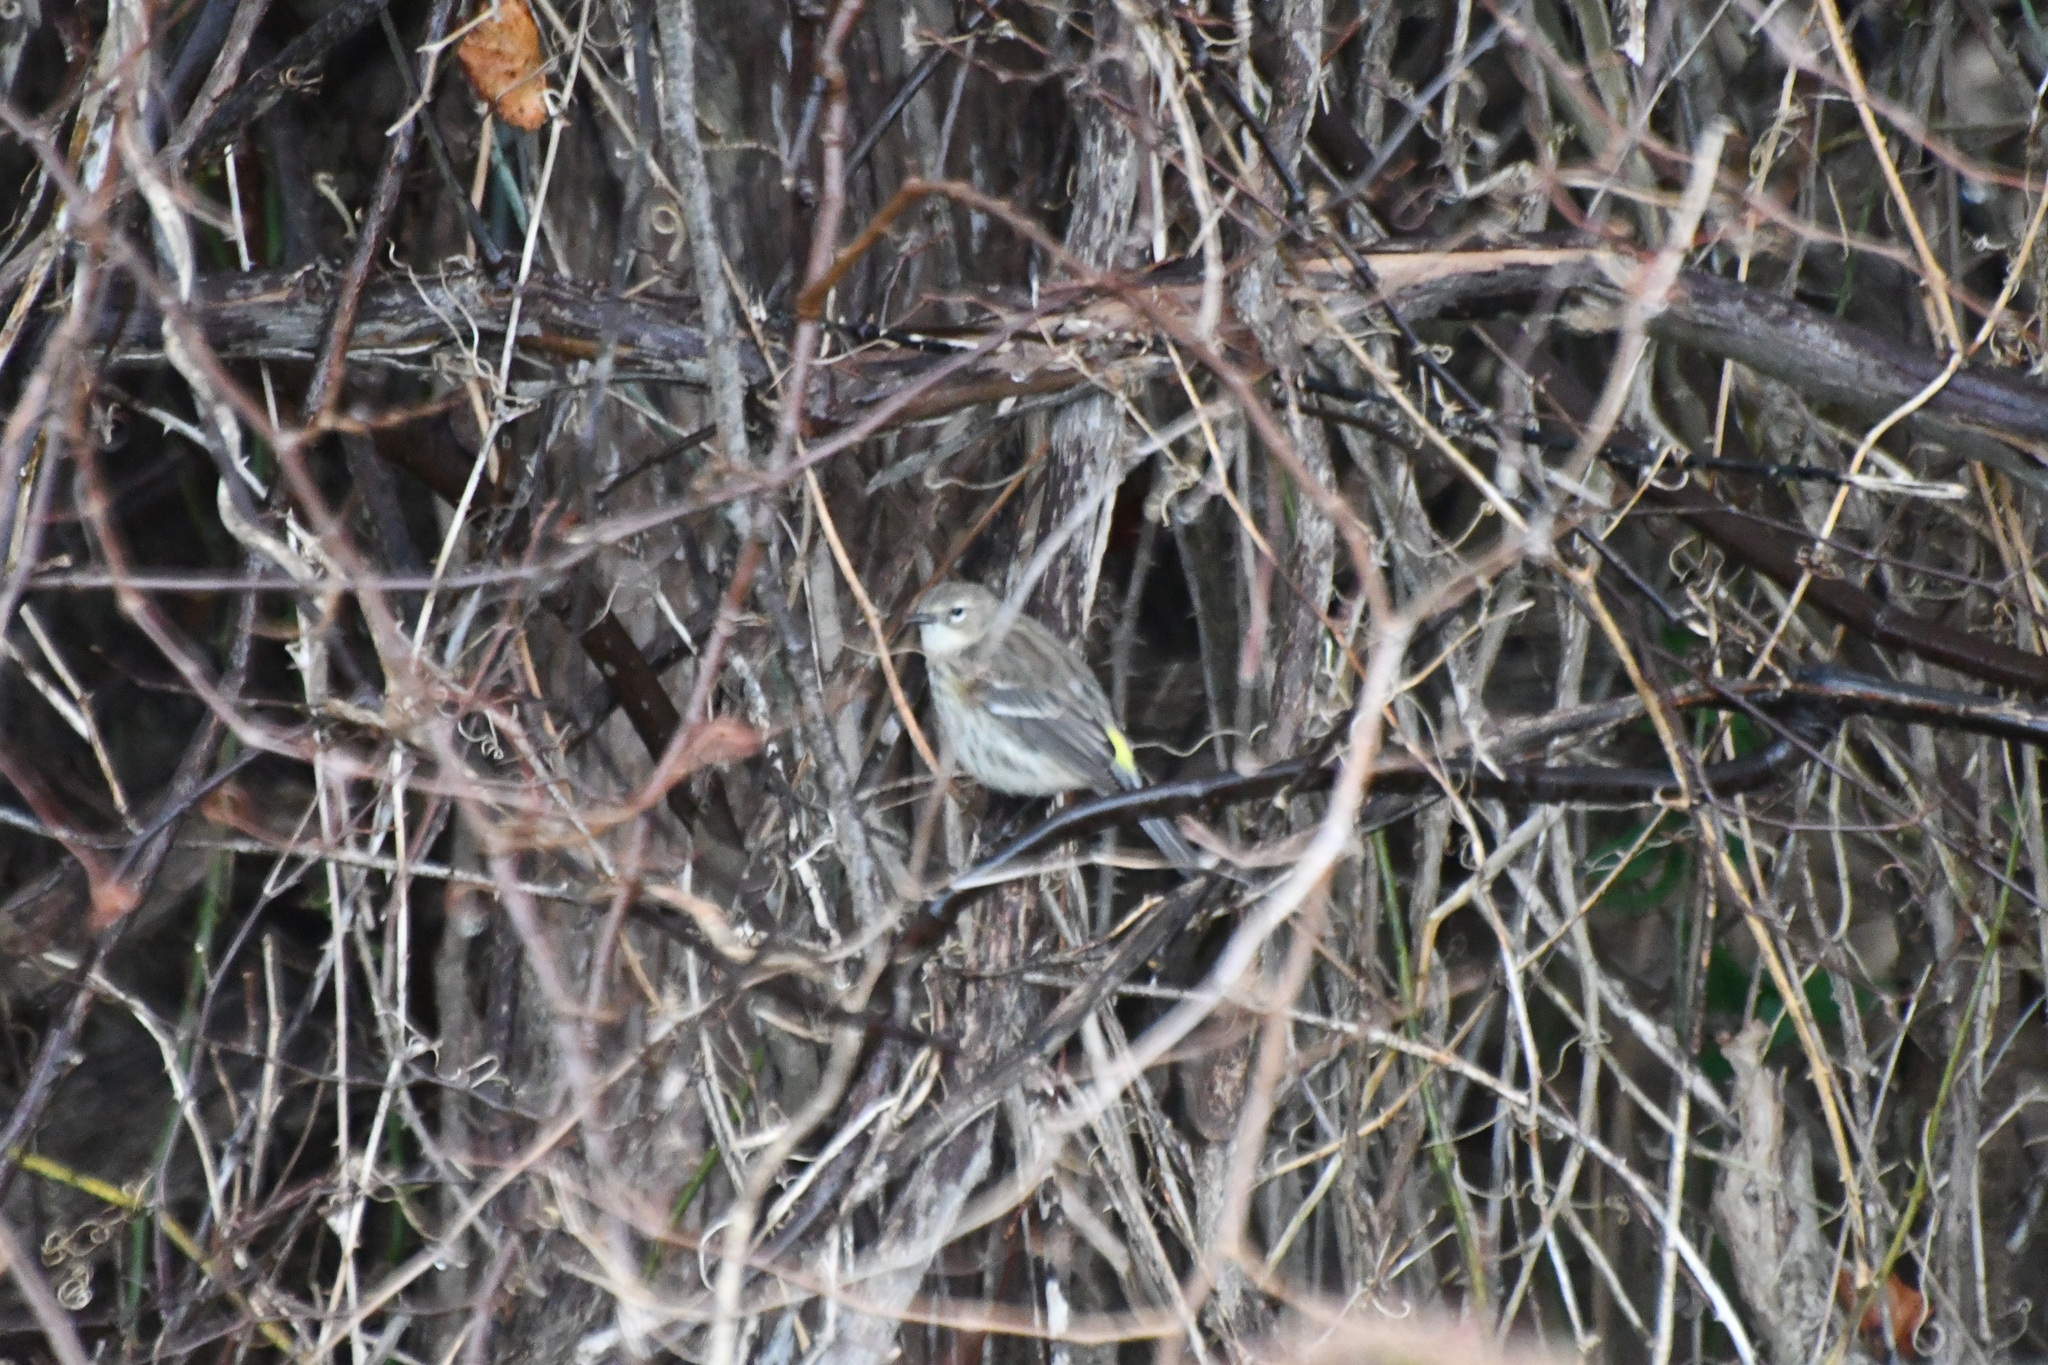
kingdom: Animalia
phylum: Chordata
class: Aves
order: Passeriformes
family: Parulidae
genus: Setophaga
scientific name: Setophaga coronata
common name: Myrtle warbler
